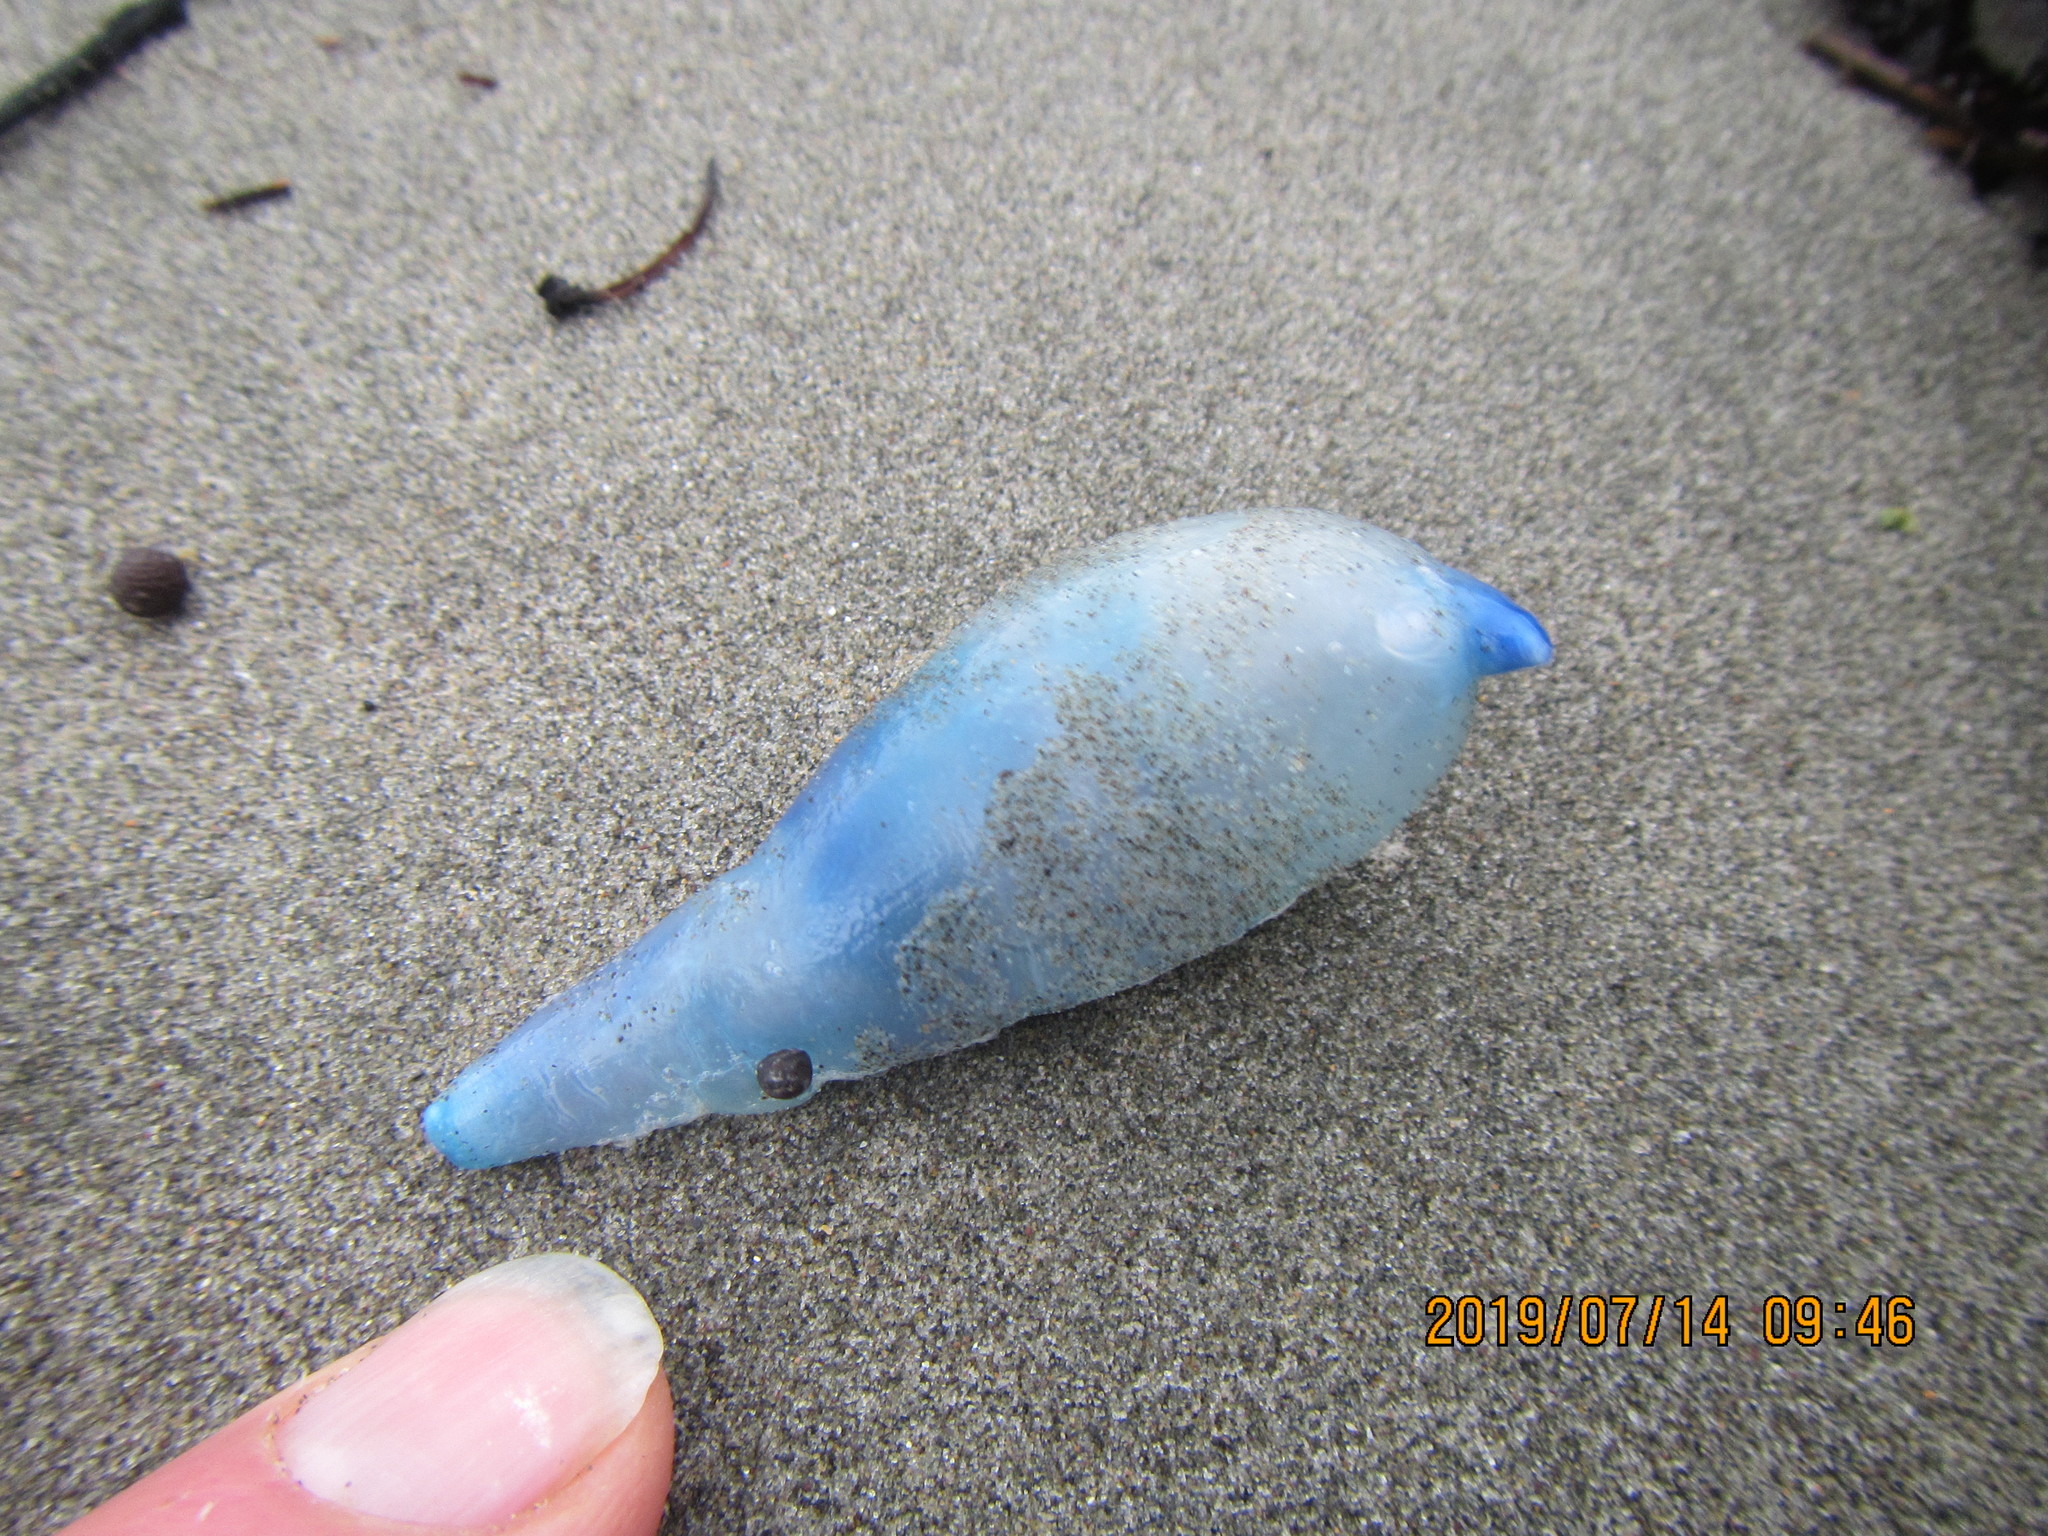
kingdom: Animalia
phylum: Cnidaria
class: Hydrozoa
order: Siphonophorae
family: Physaliidae
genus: Physalia
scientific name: Physalia physalis
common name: Portuguese man-of-war
